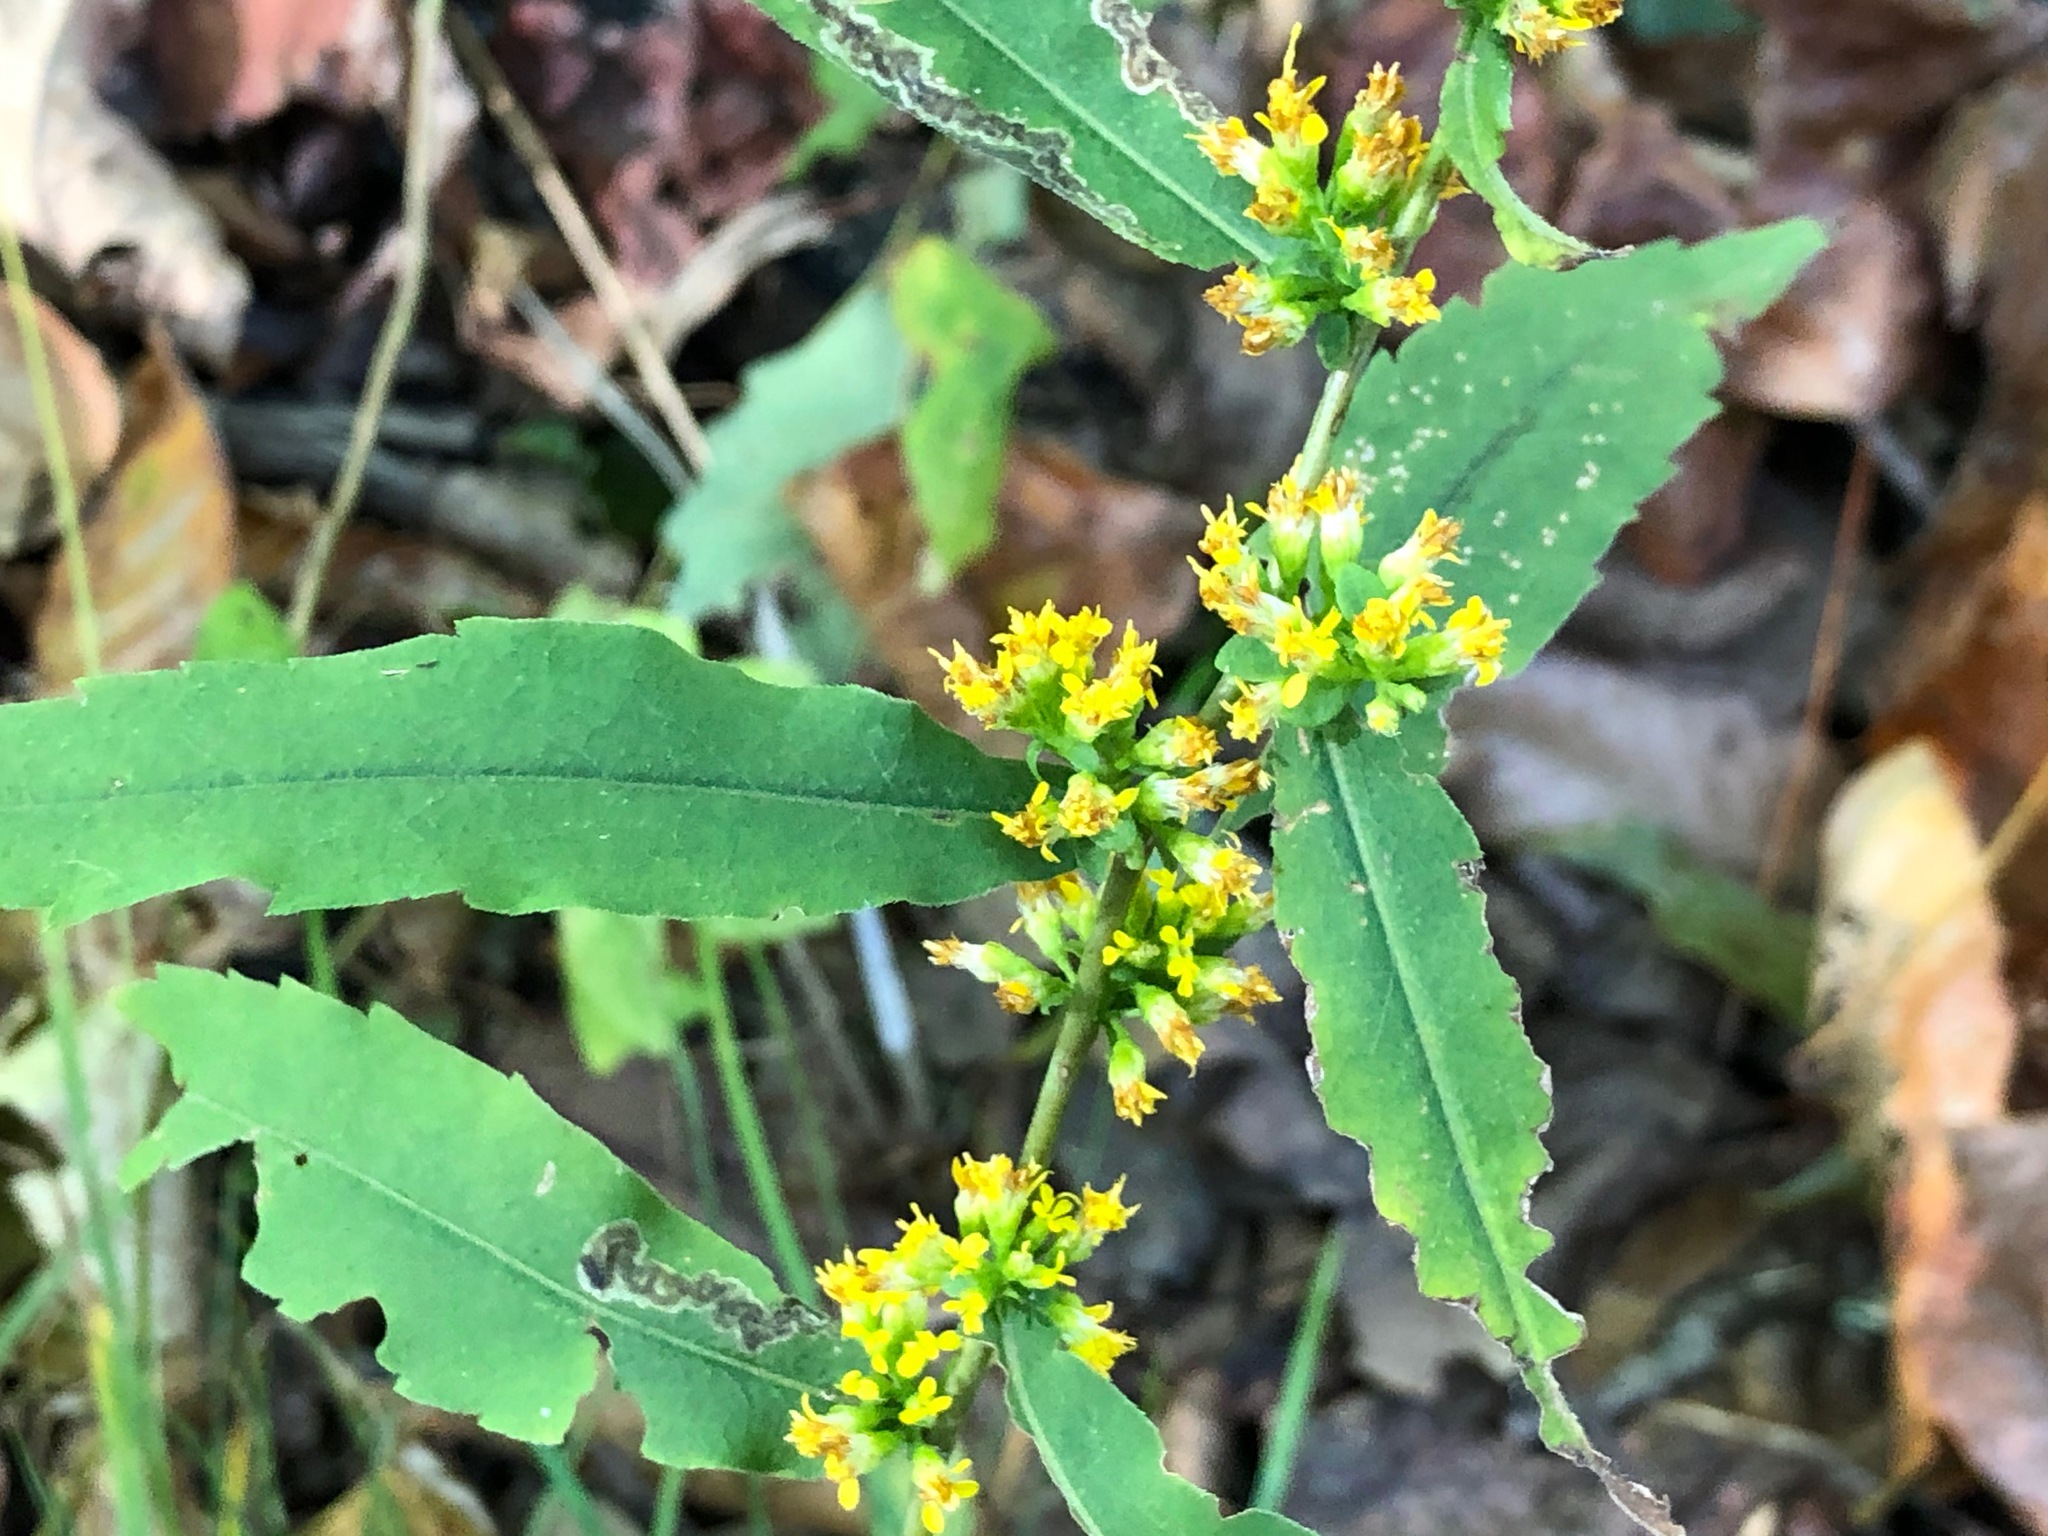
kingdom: Plantae
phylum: Tracheophyta
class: Magnoliopsida
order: Asterales
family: Asteraceae
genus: Solidago
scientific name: Solidago caesia
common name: Woodland goldenrod
